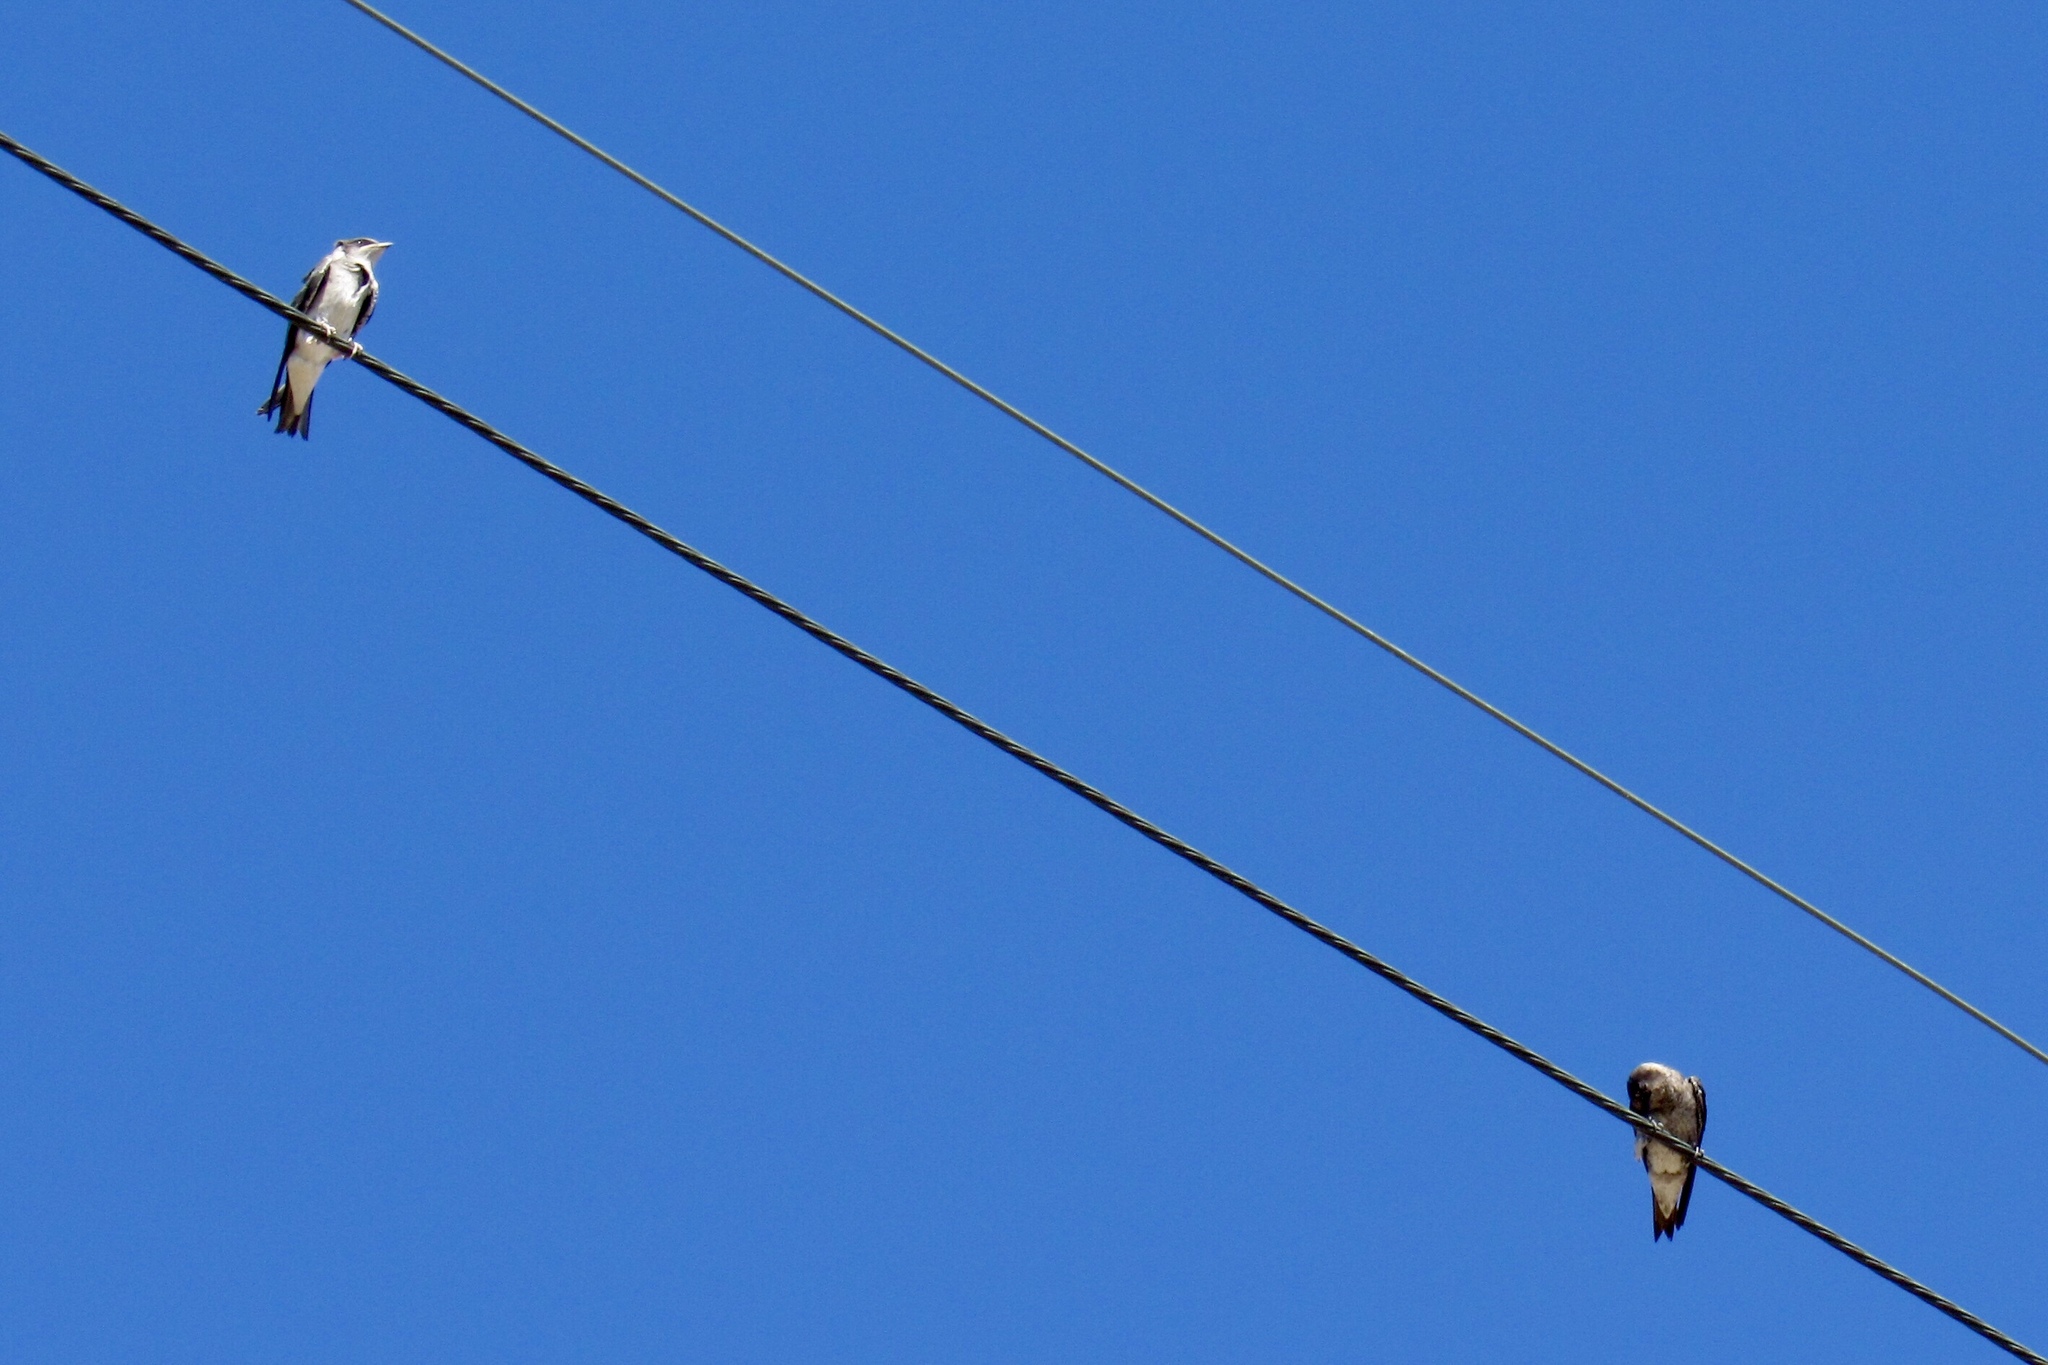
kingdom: Animalia
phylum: Chordata
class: Aves
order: Passeriformes
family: Hirundinidae
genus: Progne
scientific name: Progne subis
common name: Purple martin
